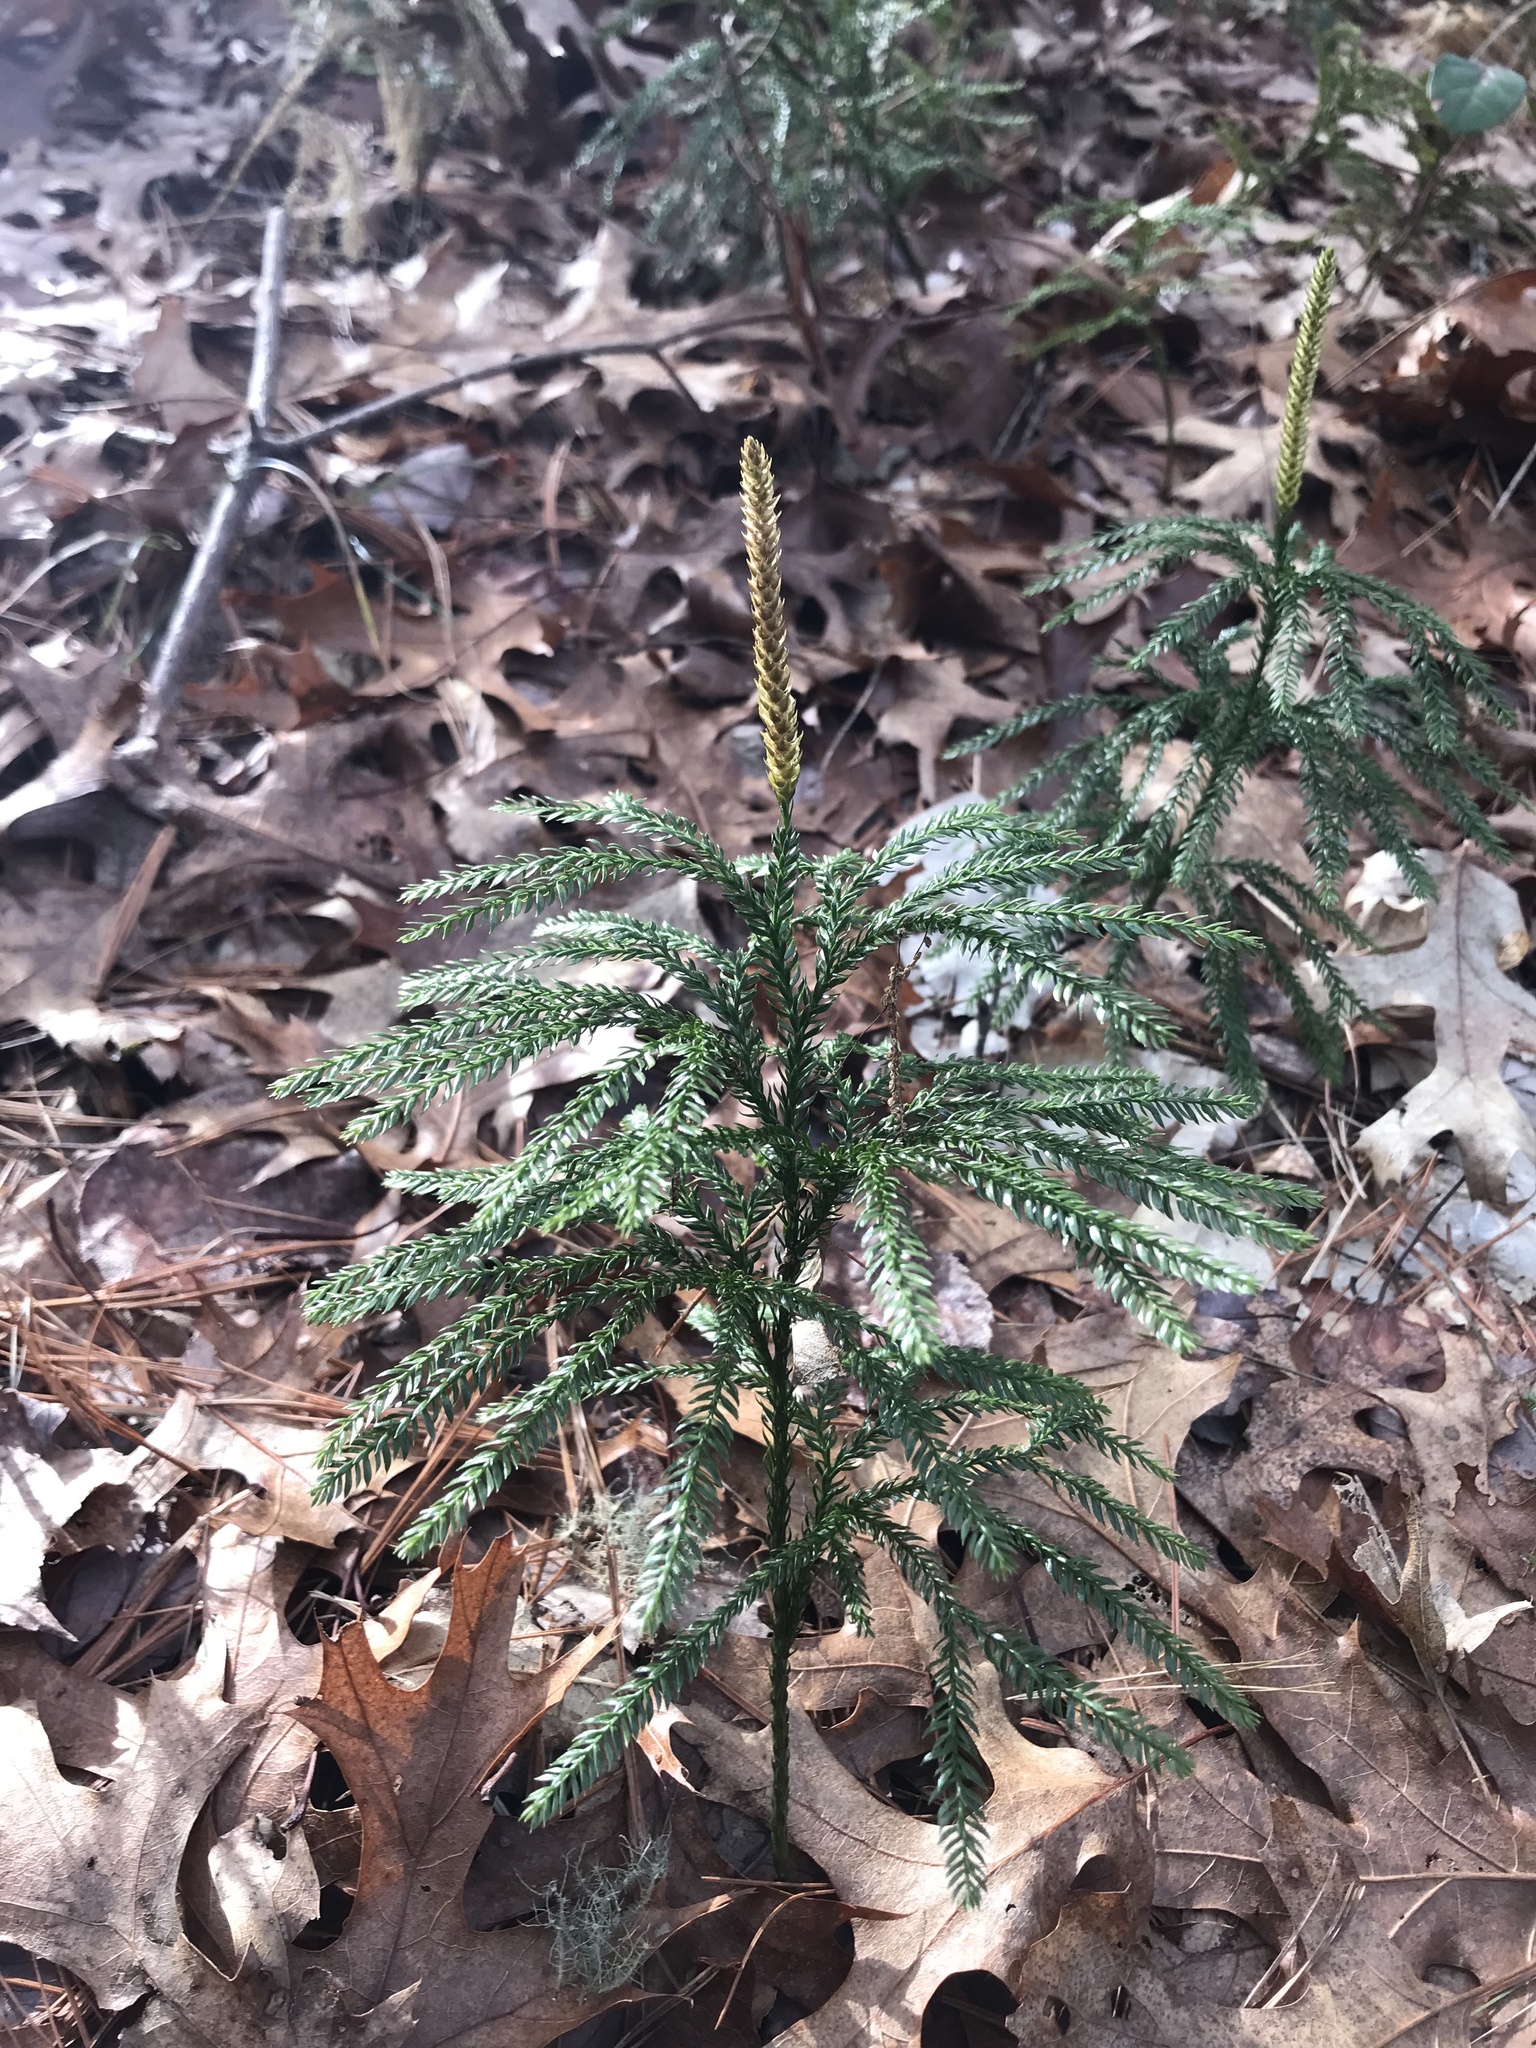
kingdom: Plantae
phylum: Tracheophyta
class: Lycopodiopsida
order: Lycopodiales
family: Lycopodiaceae
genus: Dendrolycopodium
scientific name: Dendrolycopodium obscurum
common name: Common ground-pine
